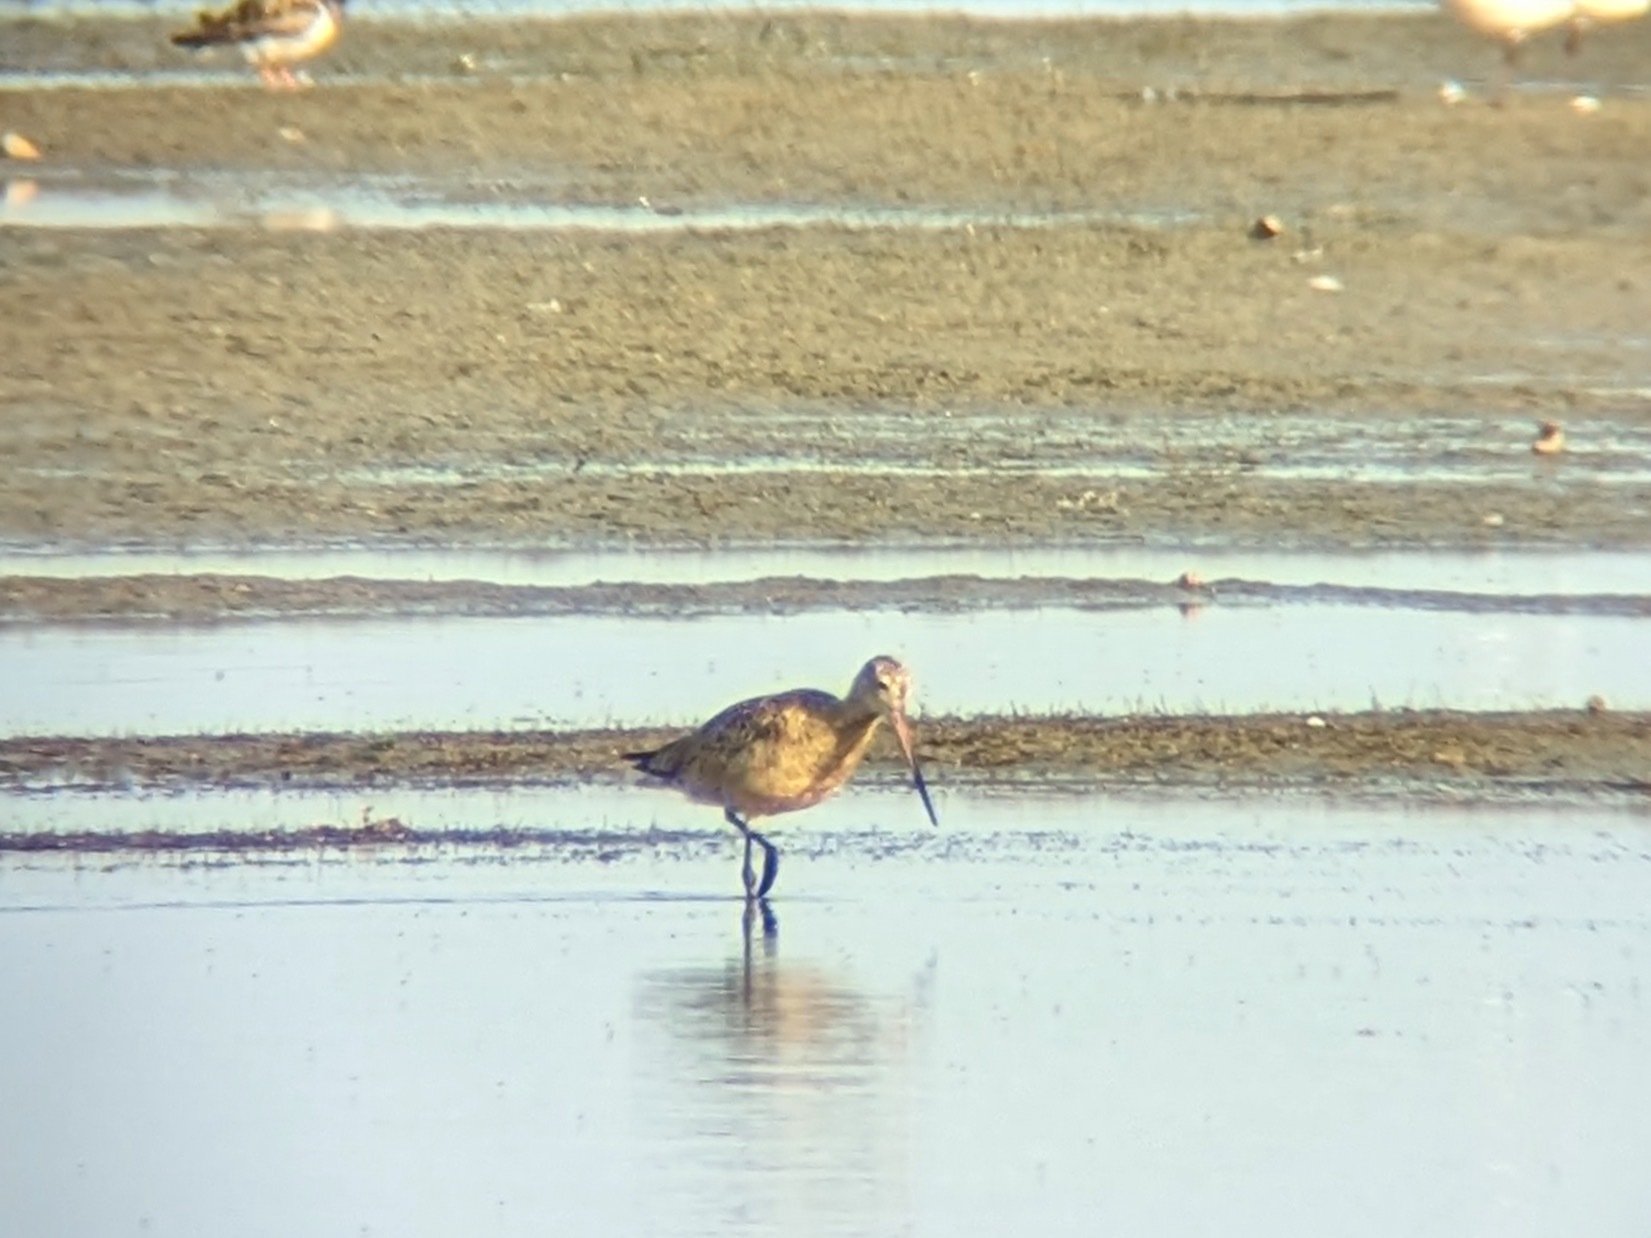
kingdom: Animalia
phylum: Chordata
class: Aves
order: Charadriiformes
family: Scolopacidae
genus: Limosa
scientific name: Limosa fedoa
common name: Marbled godwit
